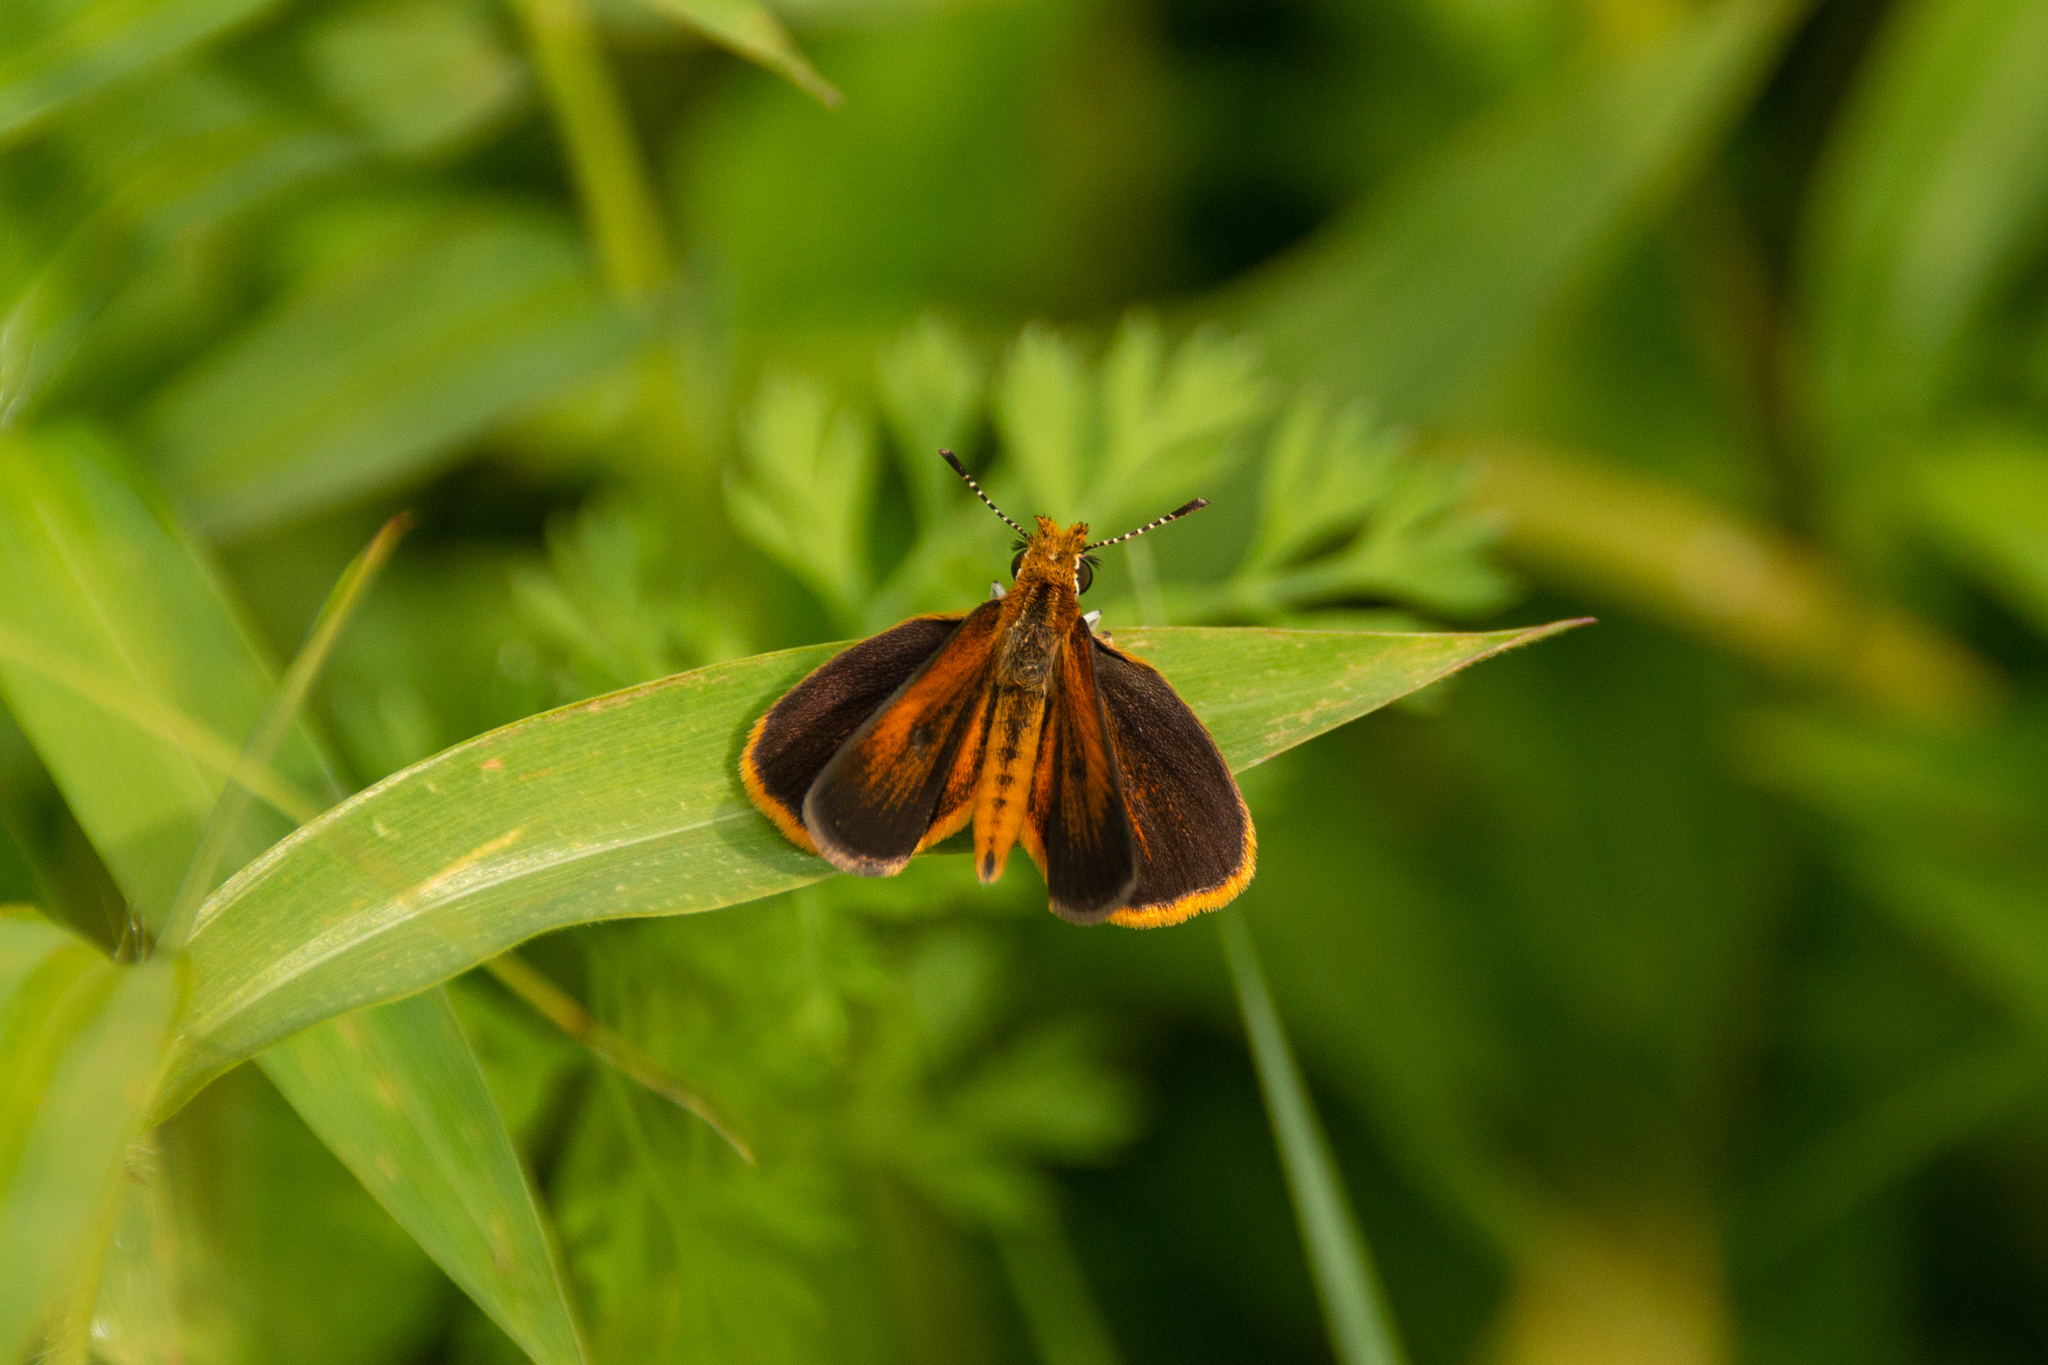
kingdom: Animalia
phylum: Arthropoda
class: Insecta
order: Lepidoptera
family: Hesperiidae
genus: Ancyloxypha
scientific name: Ancyloxypha numitor
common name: Least skipper
